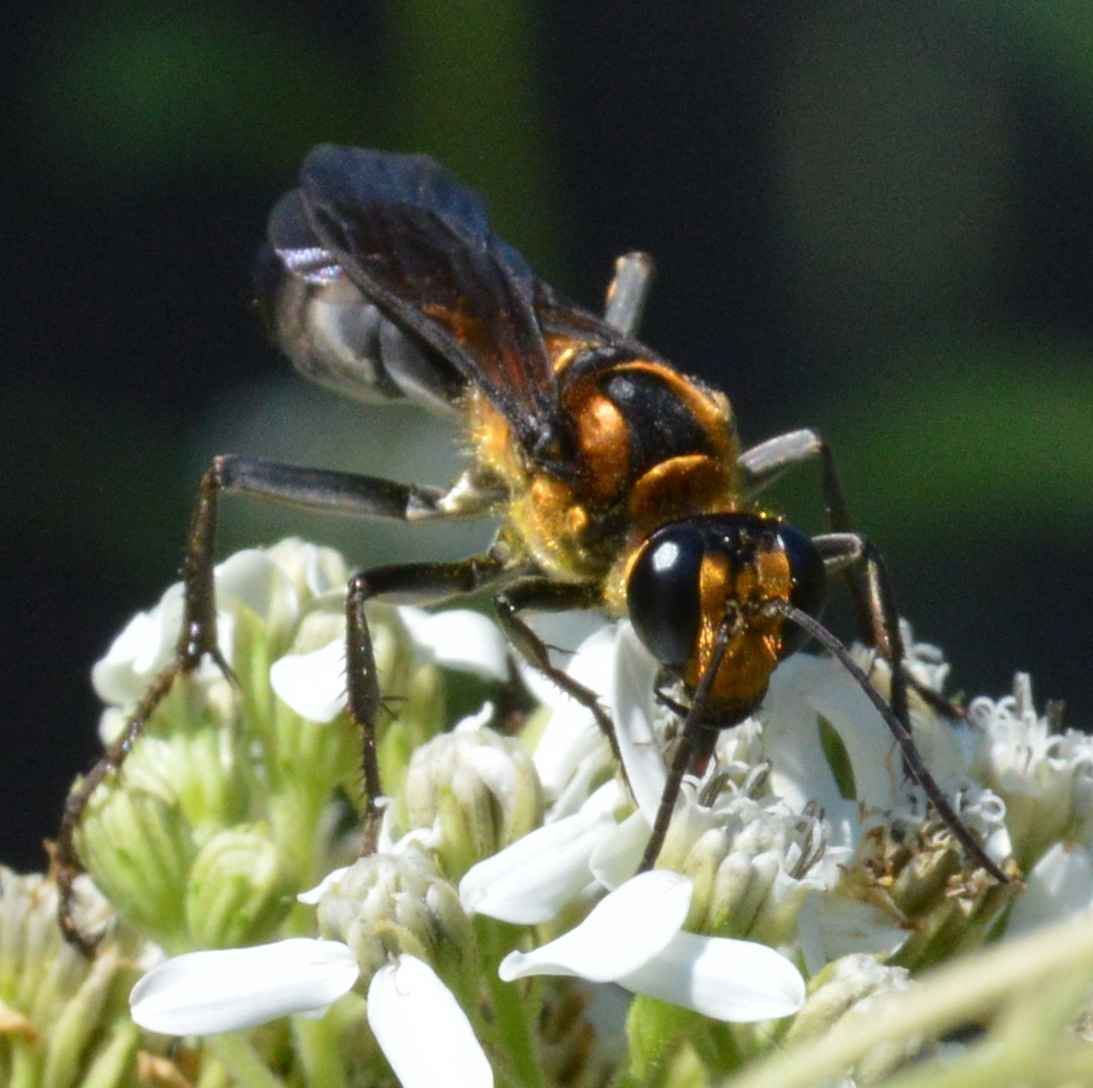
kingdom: Animalia
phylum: Arthropoda
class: Insecta
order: Hymenoptera
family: Sphecidae
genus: Sphex
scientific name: Sphex habenus
